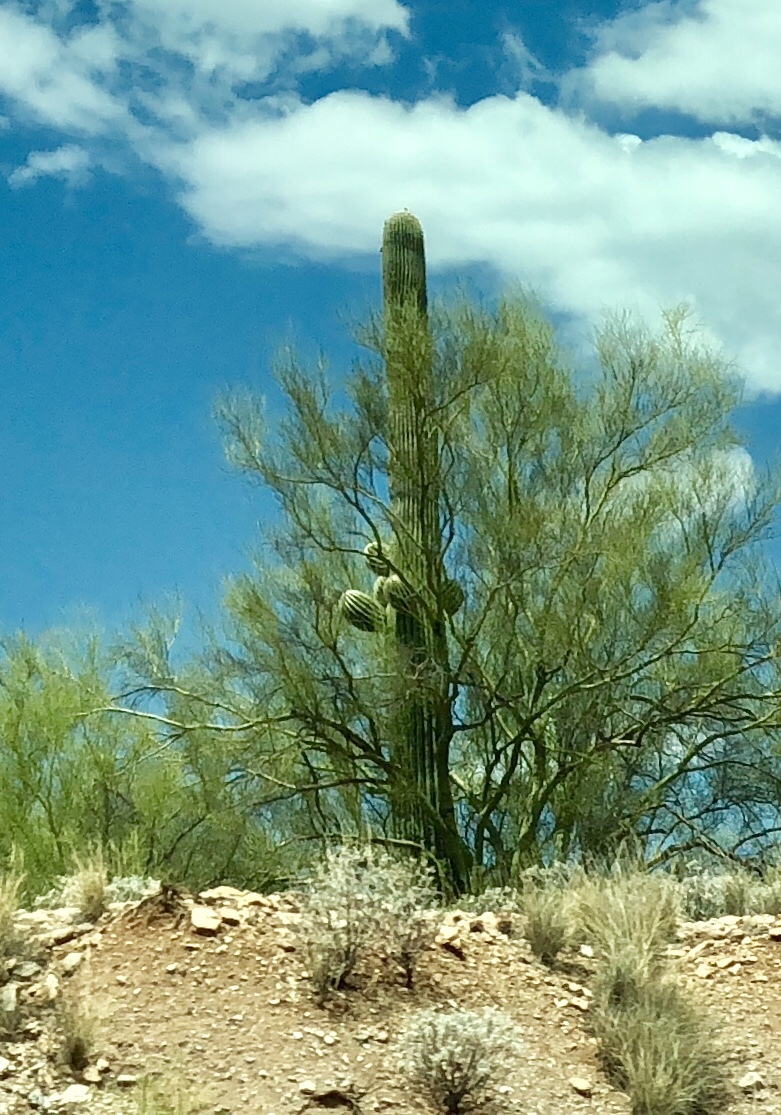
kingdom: Plantae
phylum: Tracheophyta
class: Magnoliopsida
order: Caryophyllales
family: Cactaceae
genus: Carnegiea
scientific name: Carnegiea gigantea
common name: Saguaro
